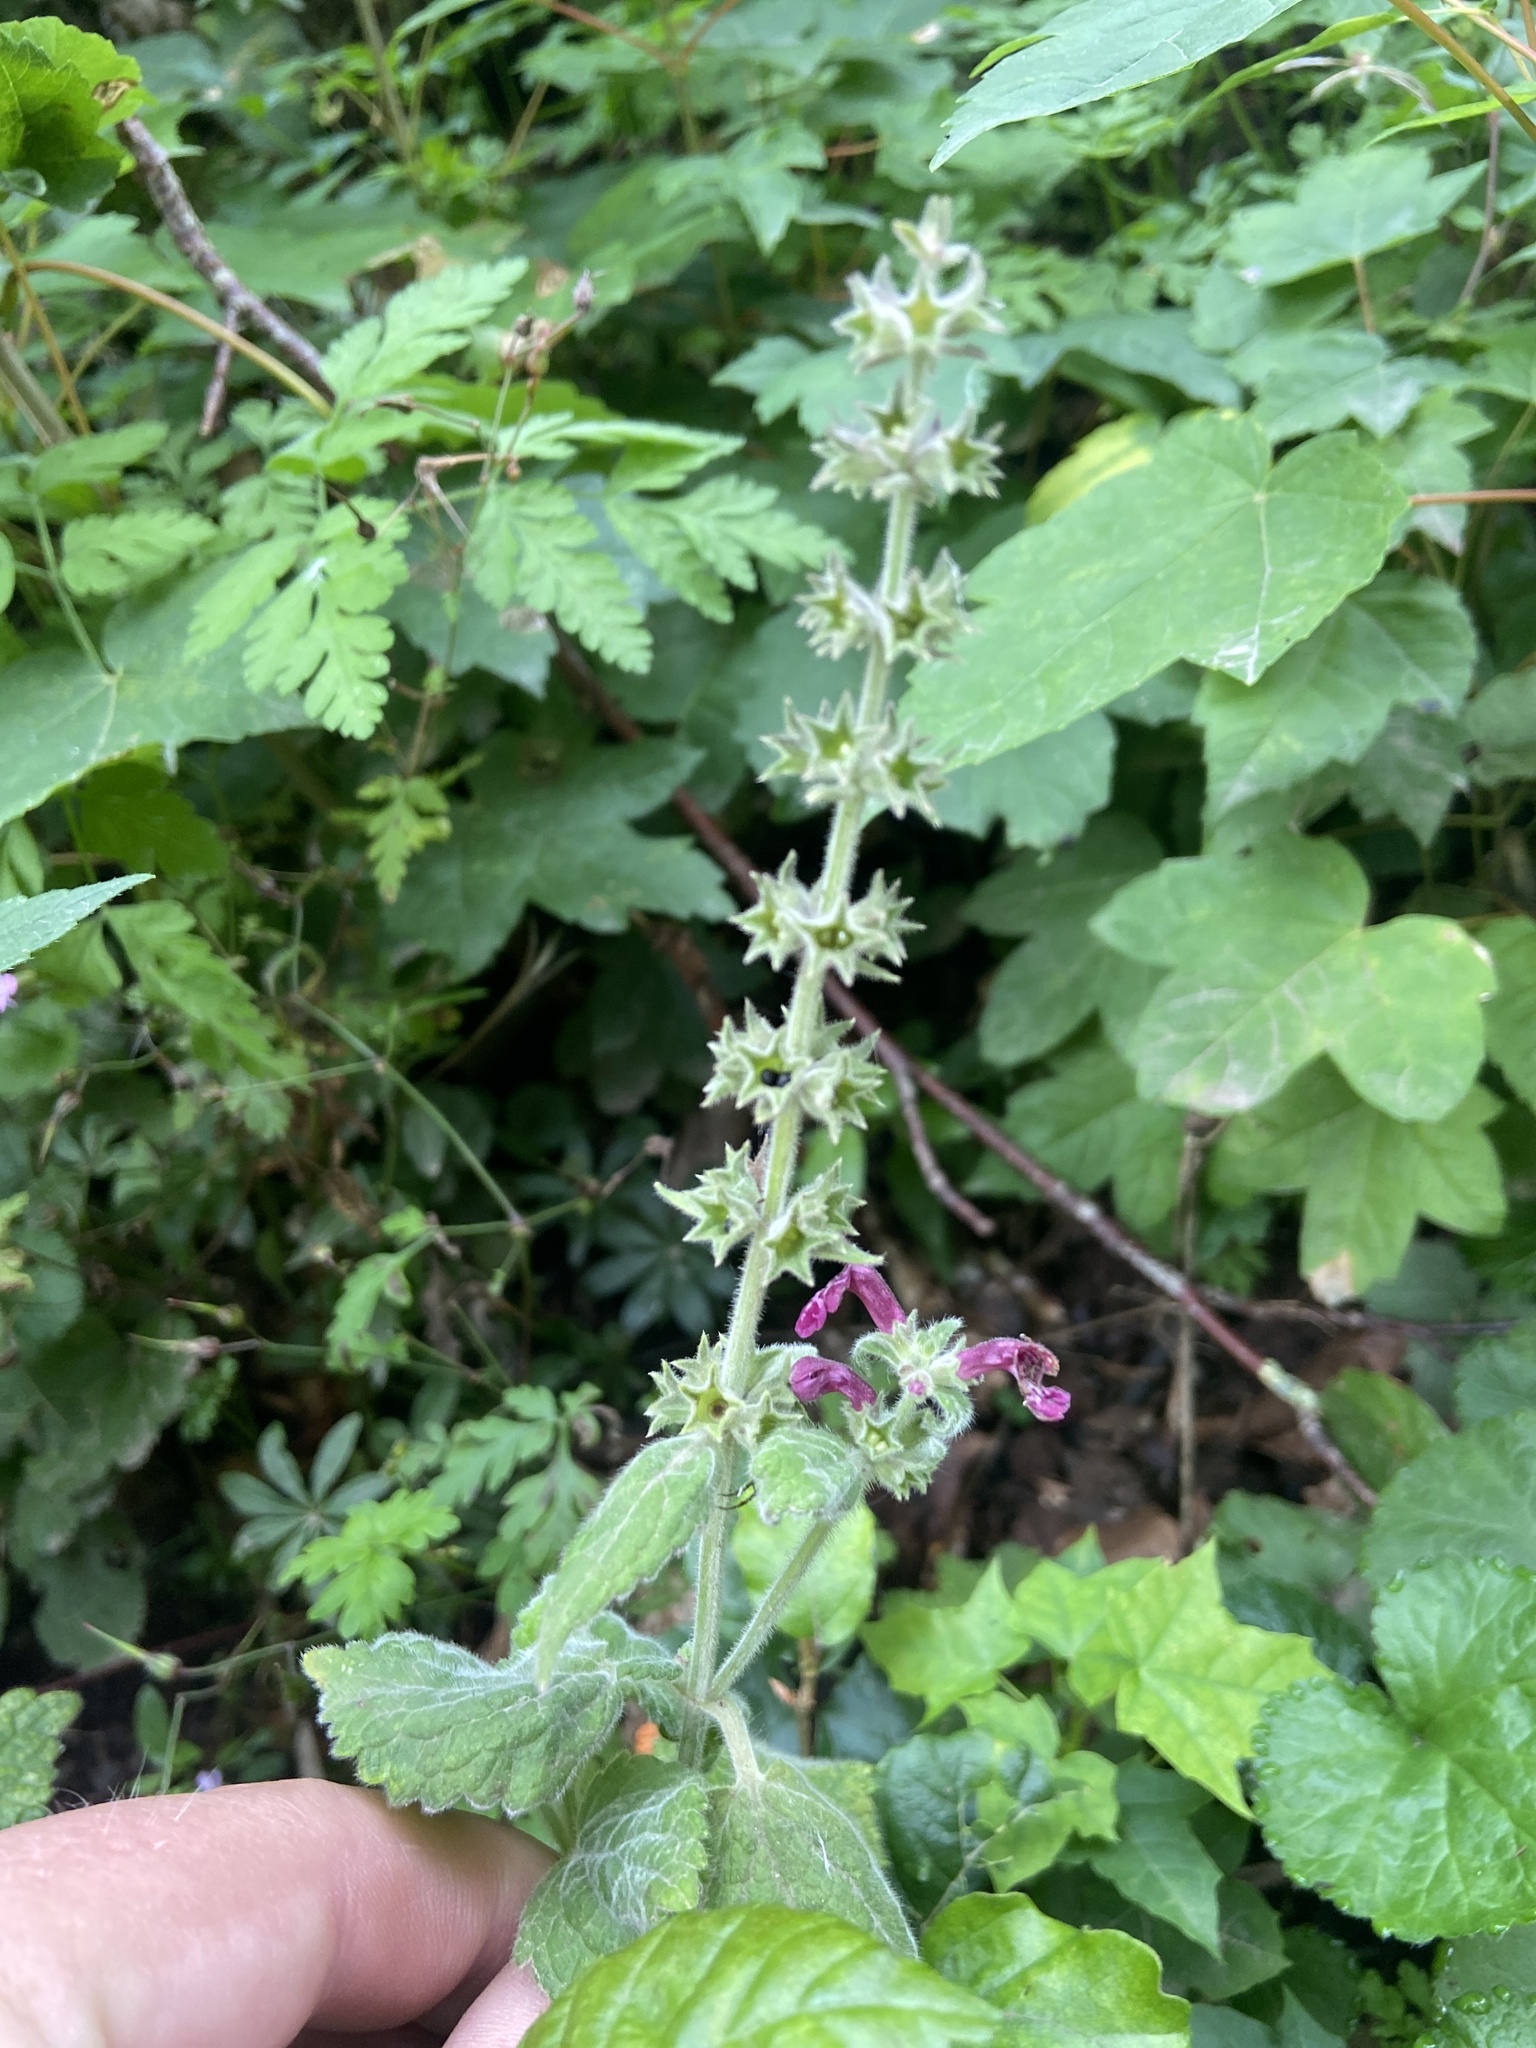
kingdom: Plantae
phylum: Tracheophyta
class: Magnoliopsida
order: Lamiales
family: Lamiaceae
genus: Stachys
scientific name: Stachys sylvatica
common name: Hedge woundwort
